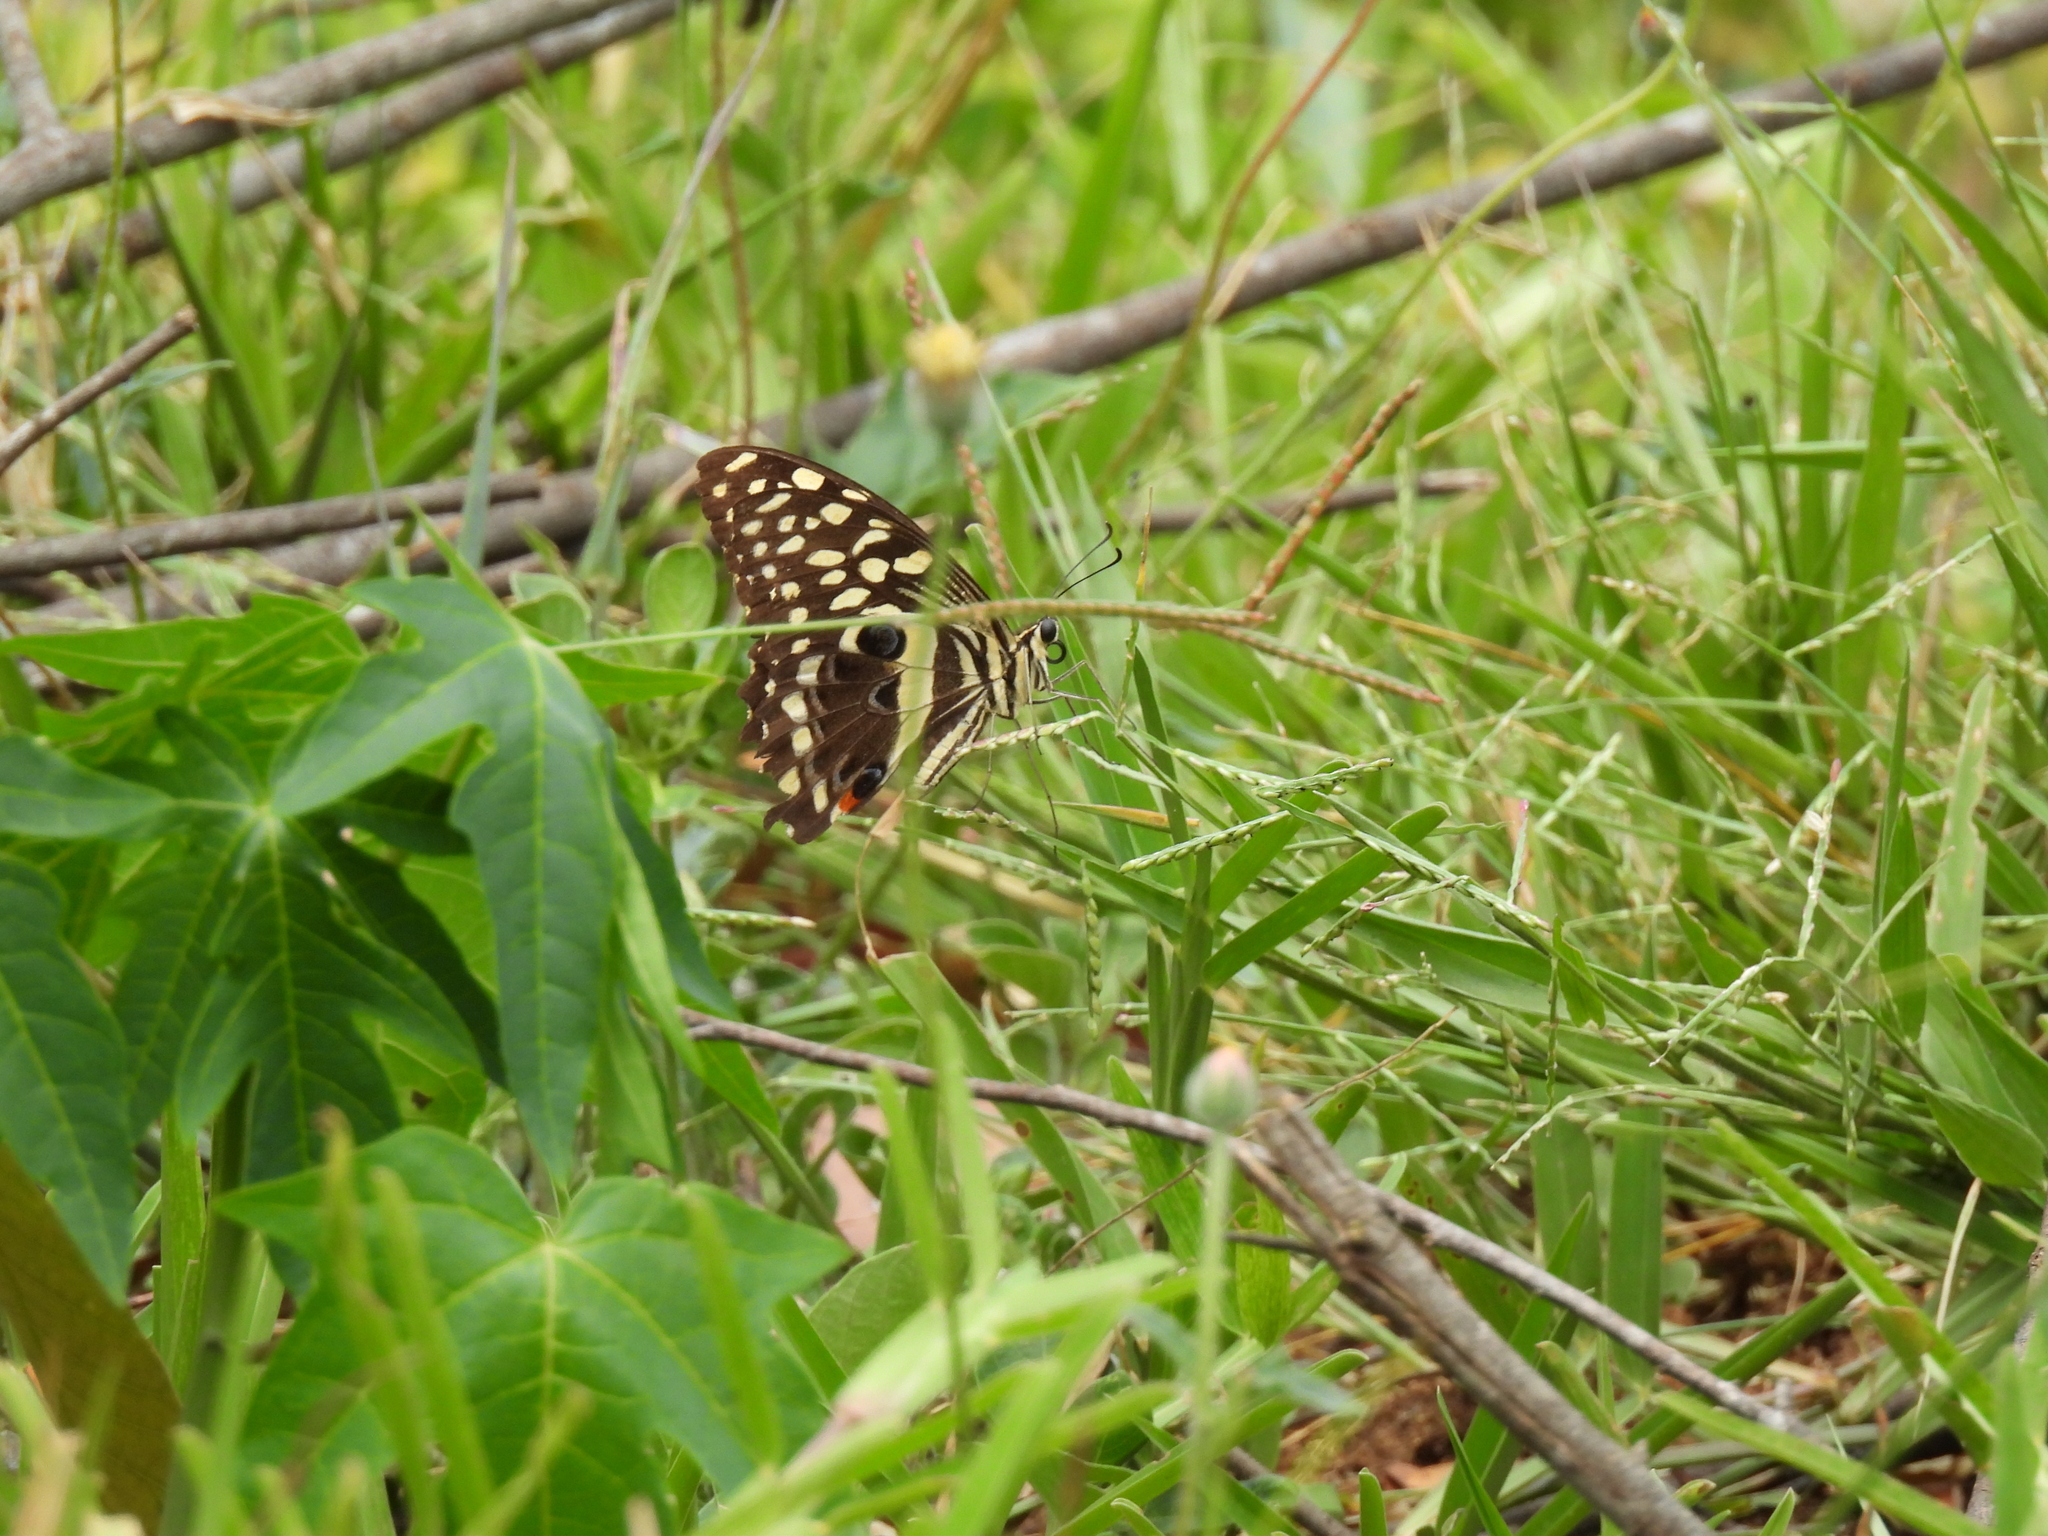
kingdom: Animalia
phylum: Arthropoda
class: Insecta
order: Lepidoptera
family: Papilionidae
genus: Papilio
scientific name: Papilio demodocus
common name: Christmas butterfly
